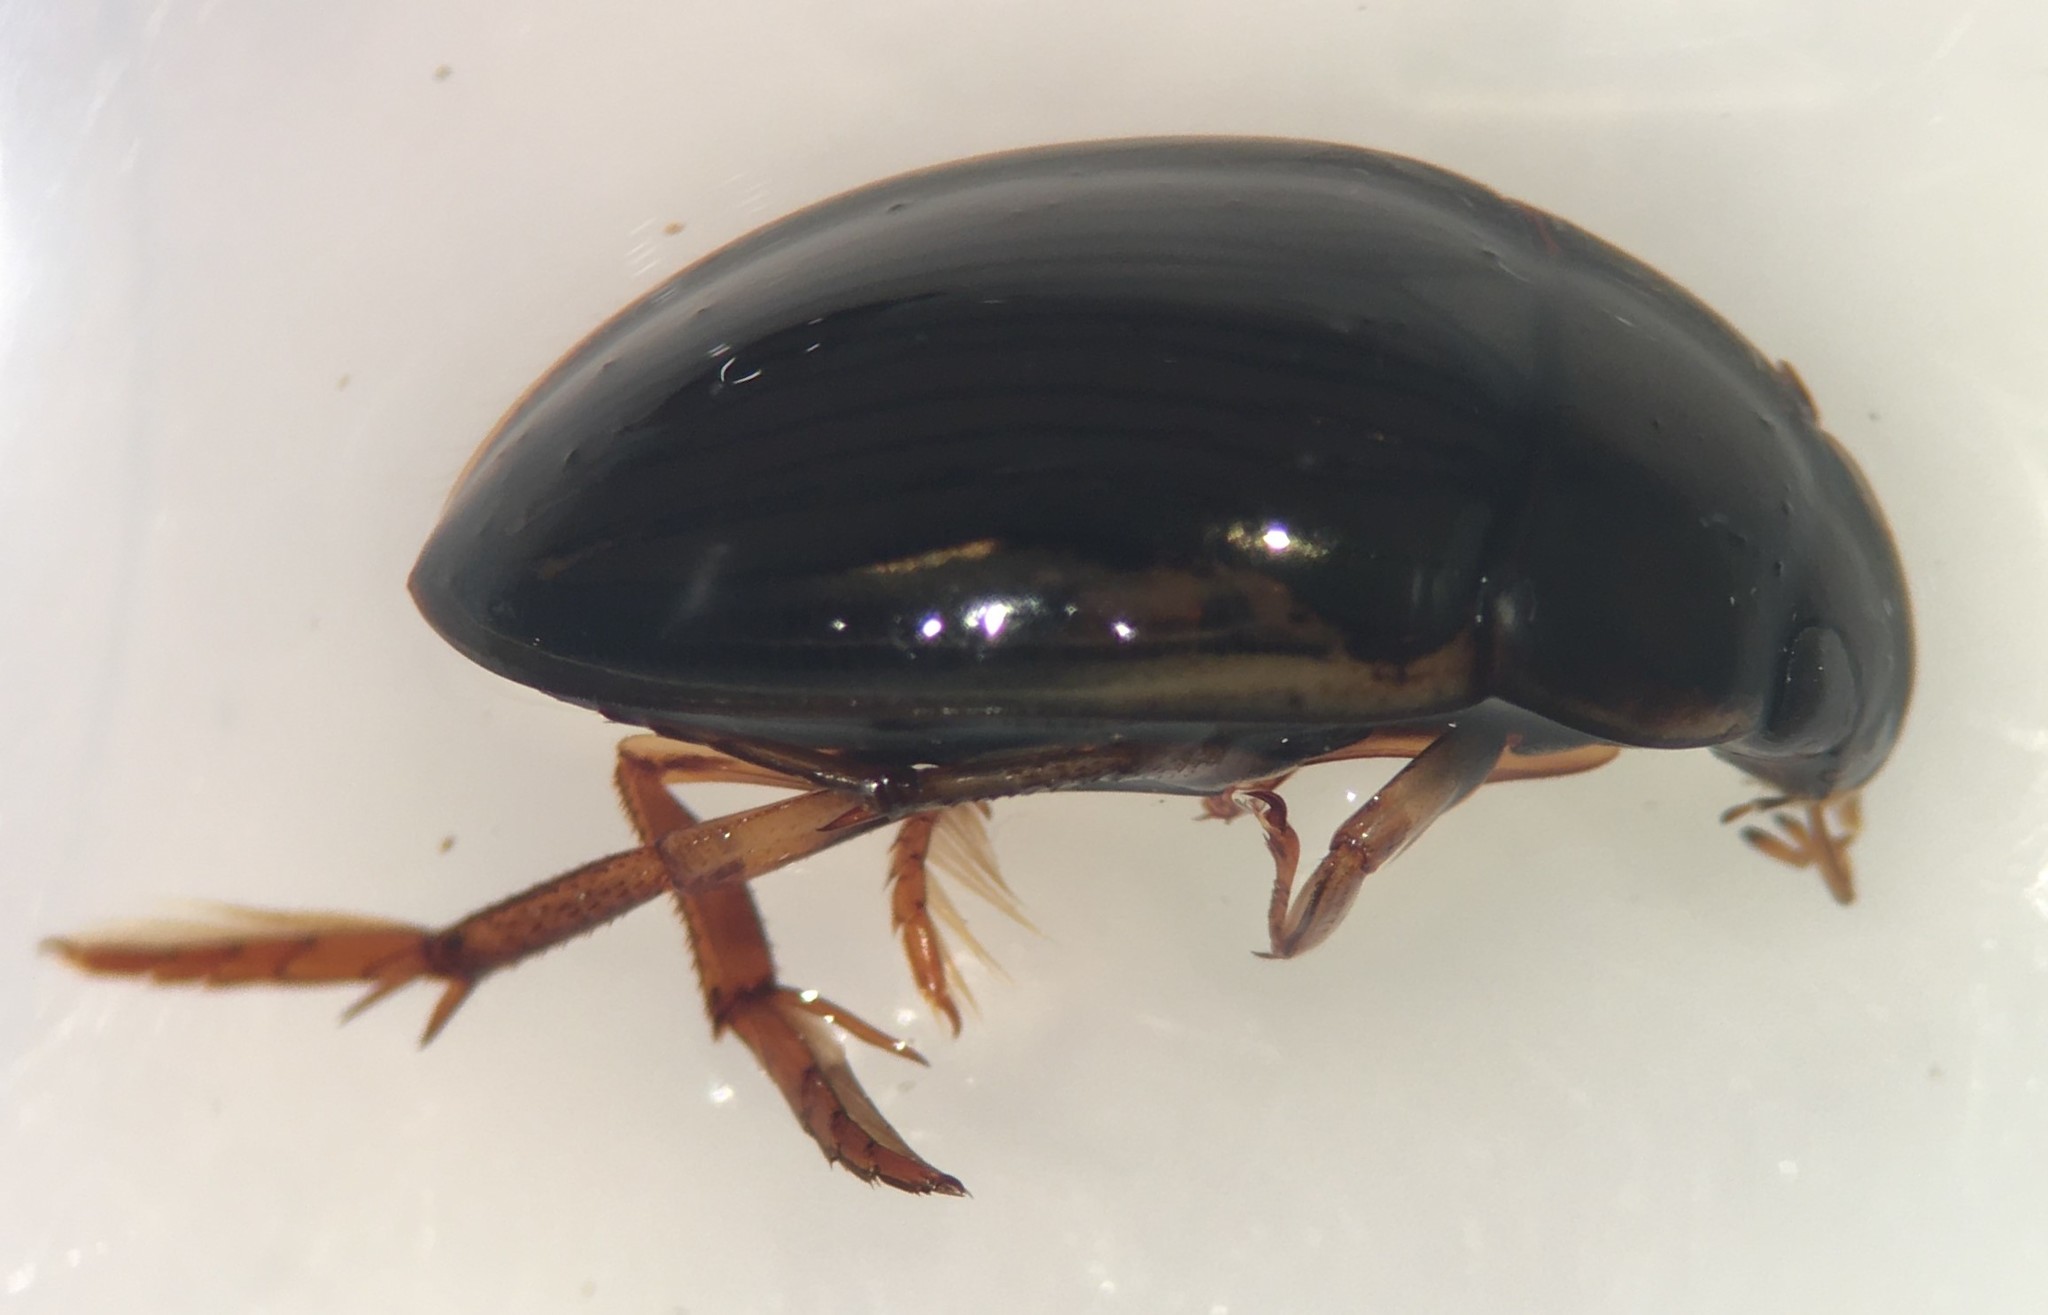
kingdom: Animalia
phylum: Arthropoda
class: Insecta
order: Coleoptera
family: Hydrophilidae
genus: Tropisternus
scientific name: Tropisternus collaris
